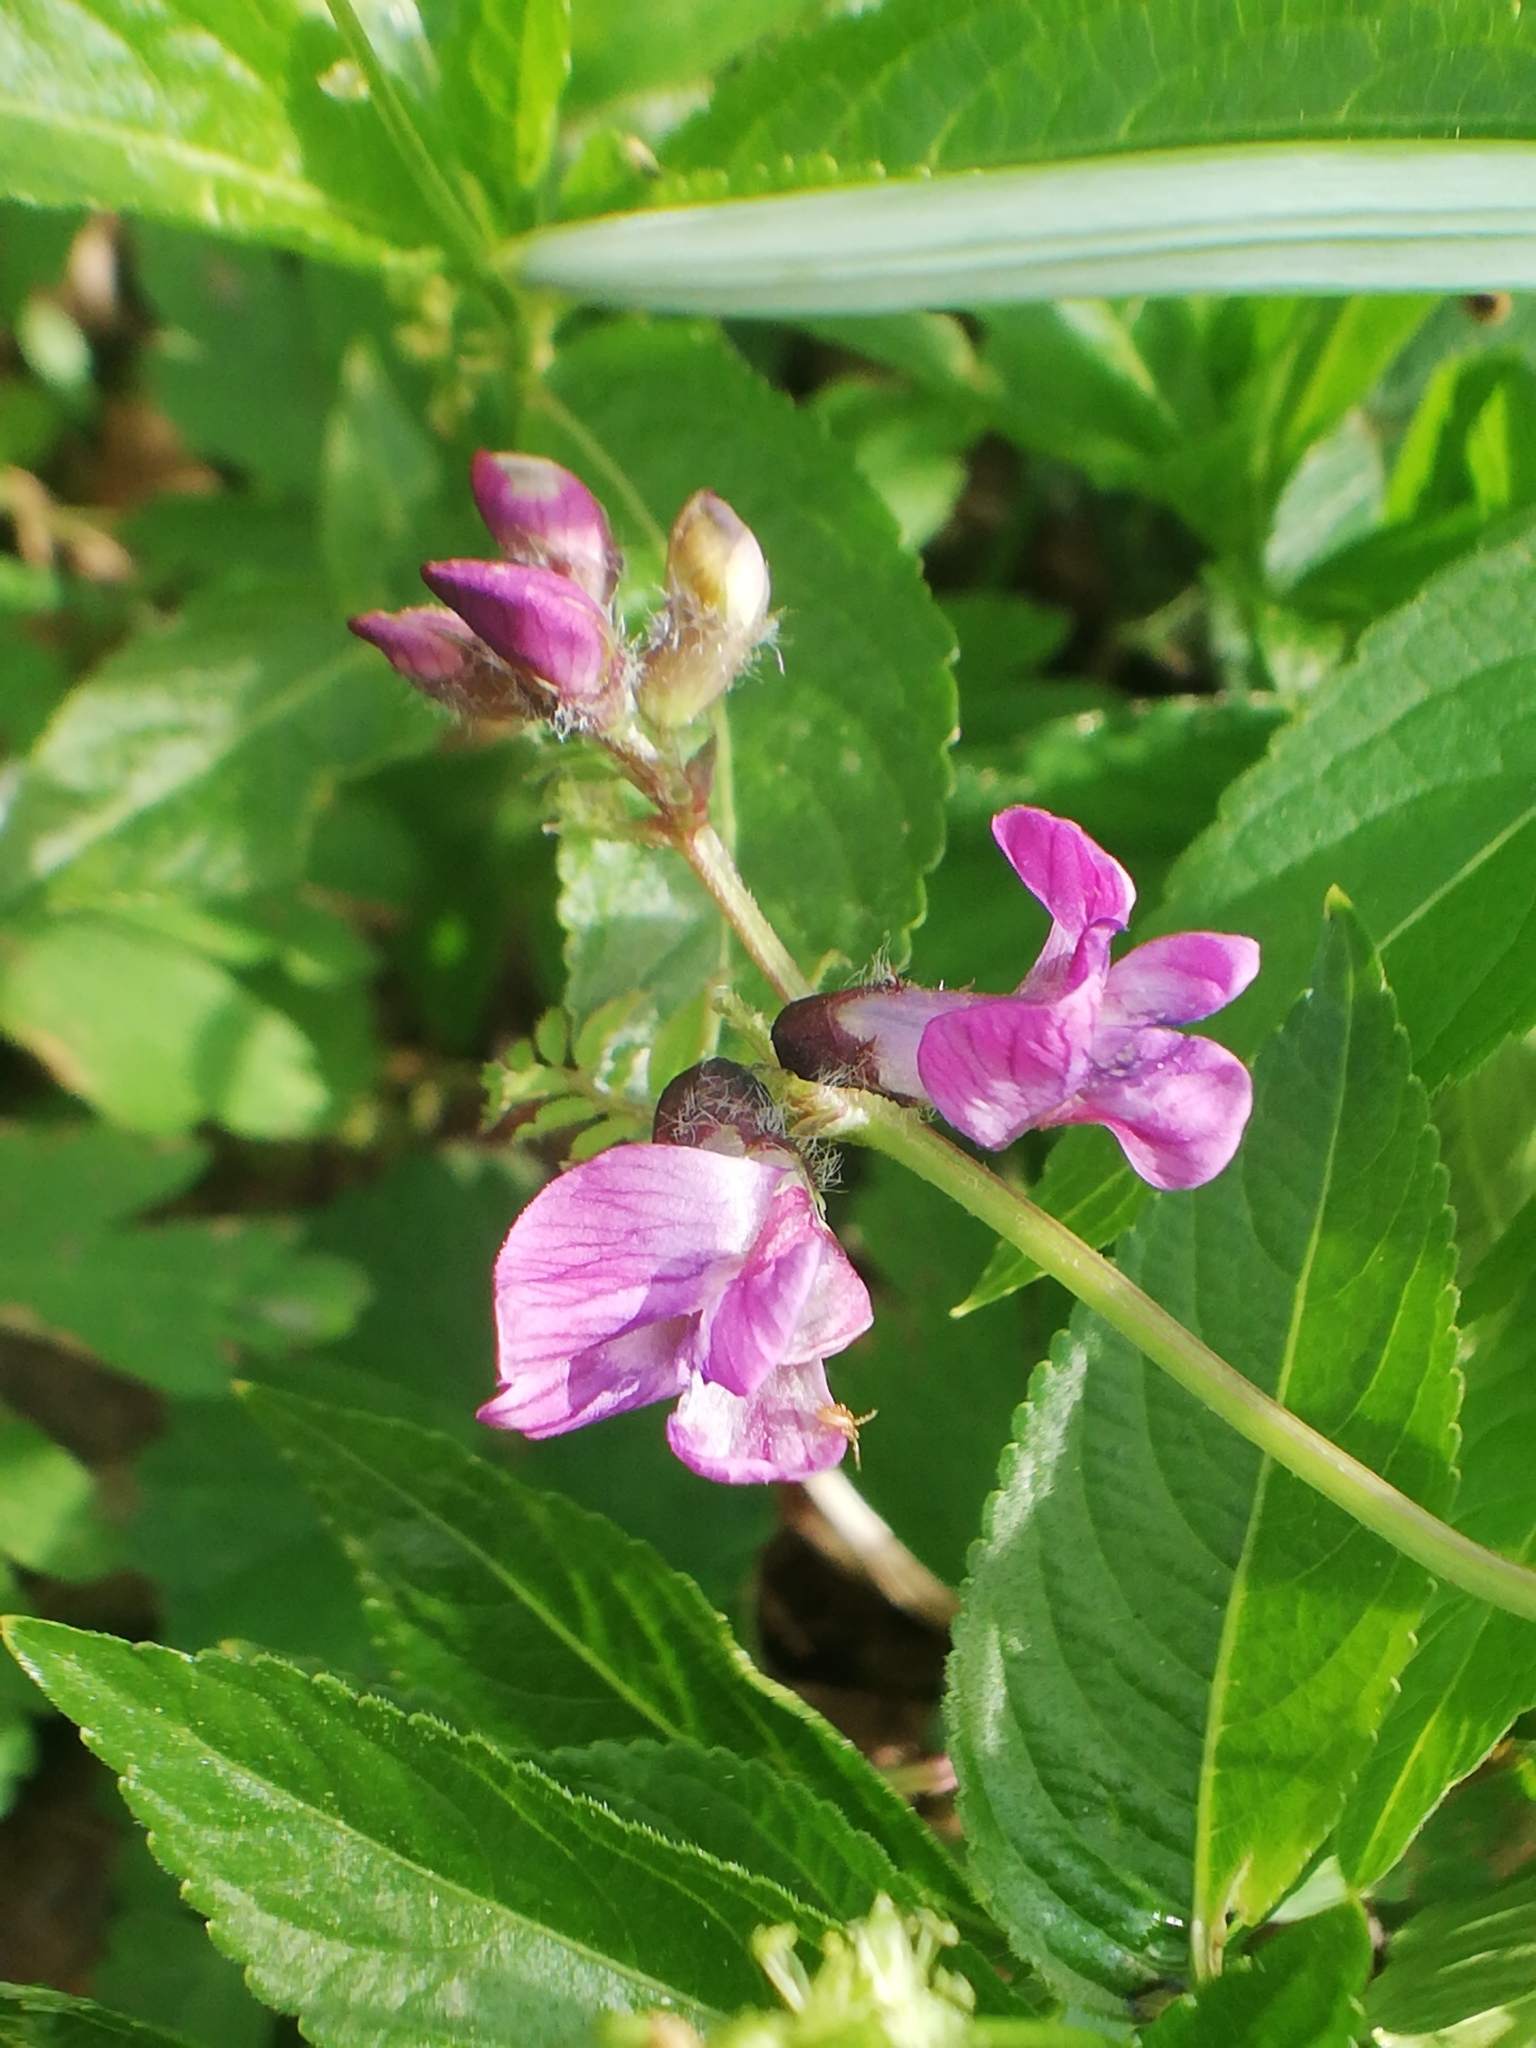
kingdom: Plantae
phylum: Tracheophyta
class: Magnoliopsida
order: Fabales
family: Fabaceae
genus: Vicia
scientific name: Vicia sepium
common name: Bush vetch
